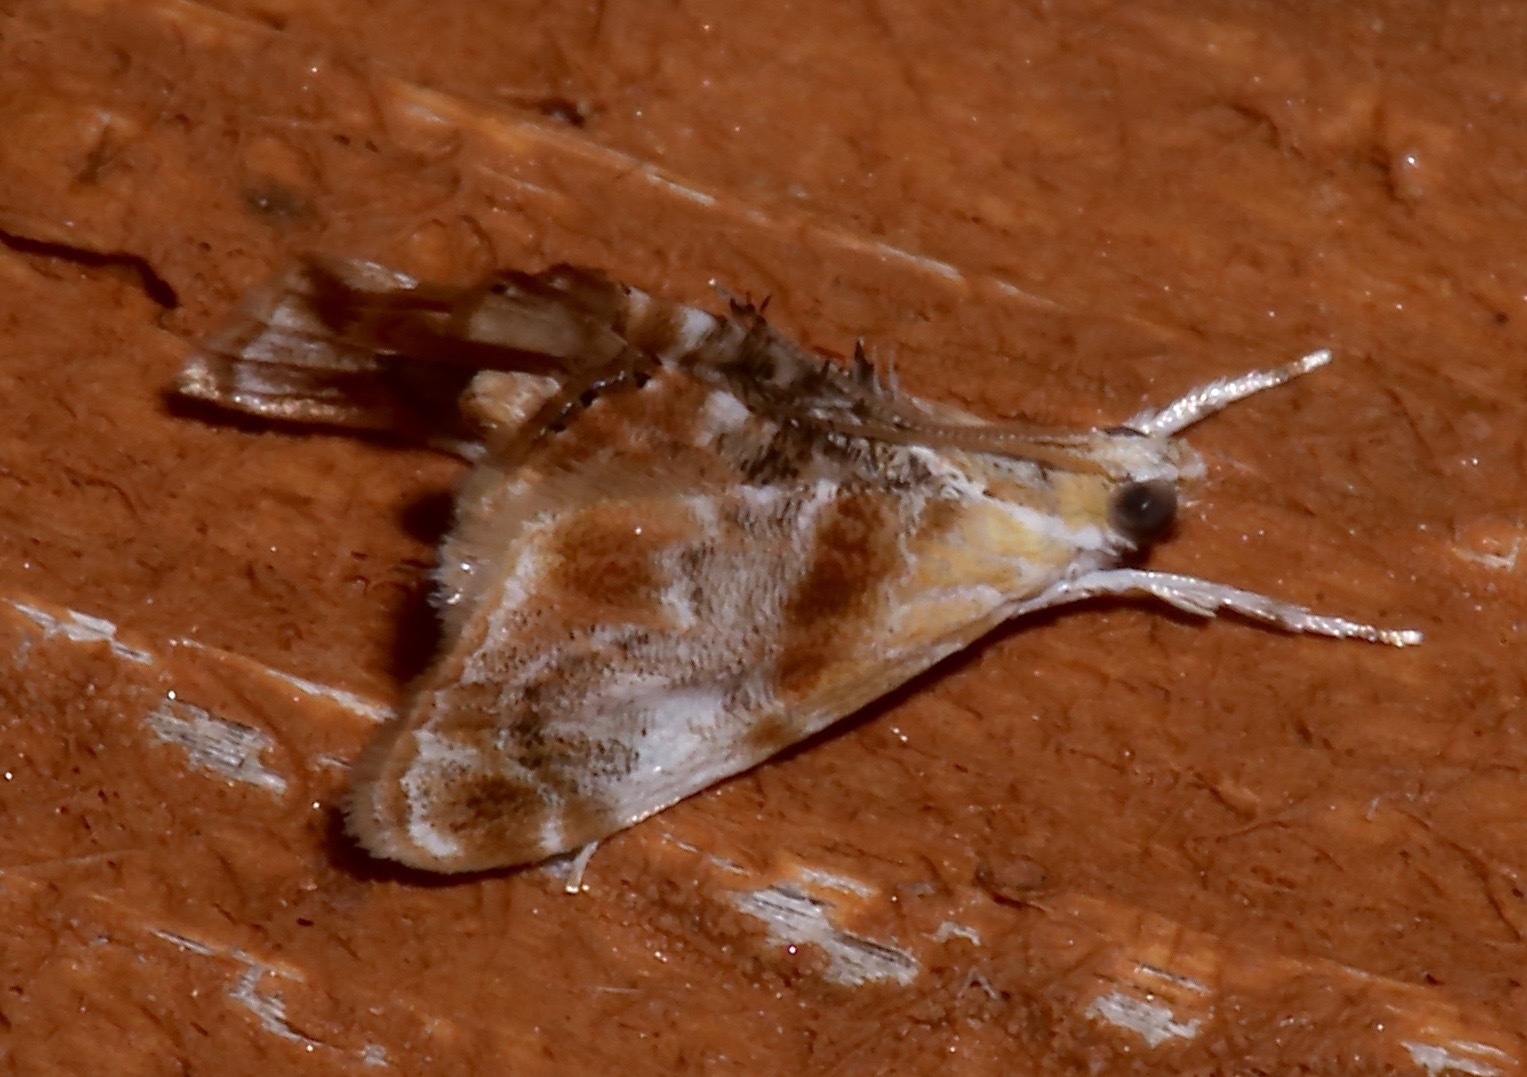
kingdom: Animalia
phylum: Arthropoda
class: Insecta
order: Lepidoptera
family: Crambidae
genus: Dicymolomia
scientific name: Dicymolomia julianalis
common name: Julia's dicymolomia moth
